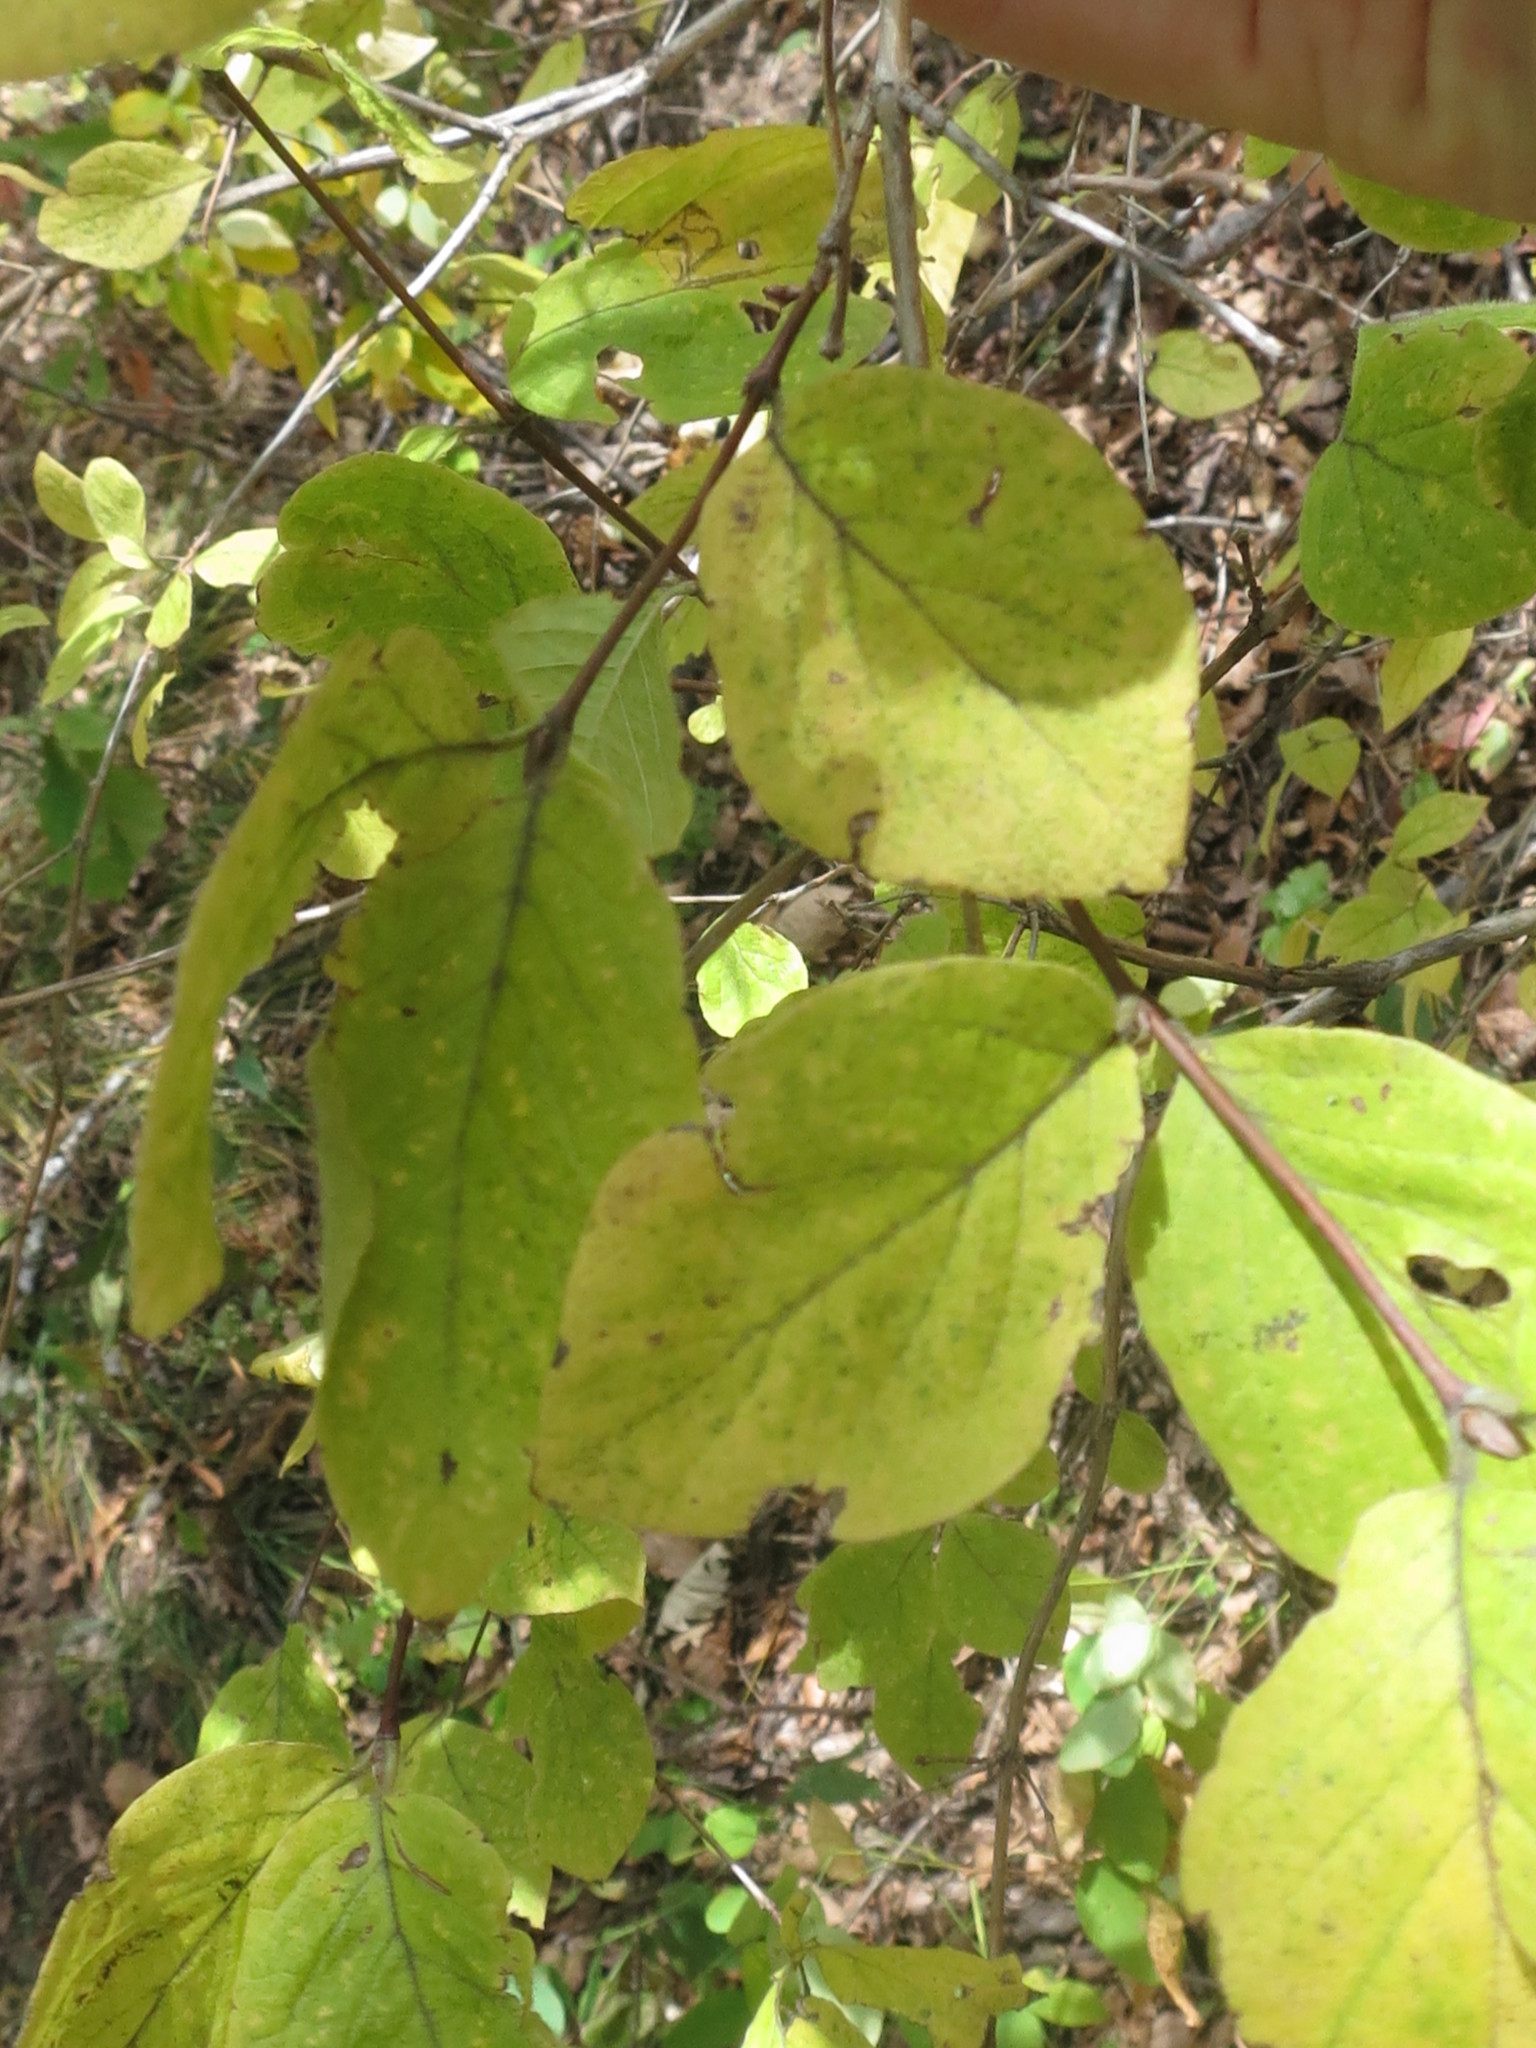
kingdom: Plantae
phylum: Tracheophyta
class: Magnoliopsida
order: Dipsacales
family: Caprifoliaceae
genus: Lonicera
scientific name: Lonicera praeflorens
